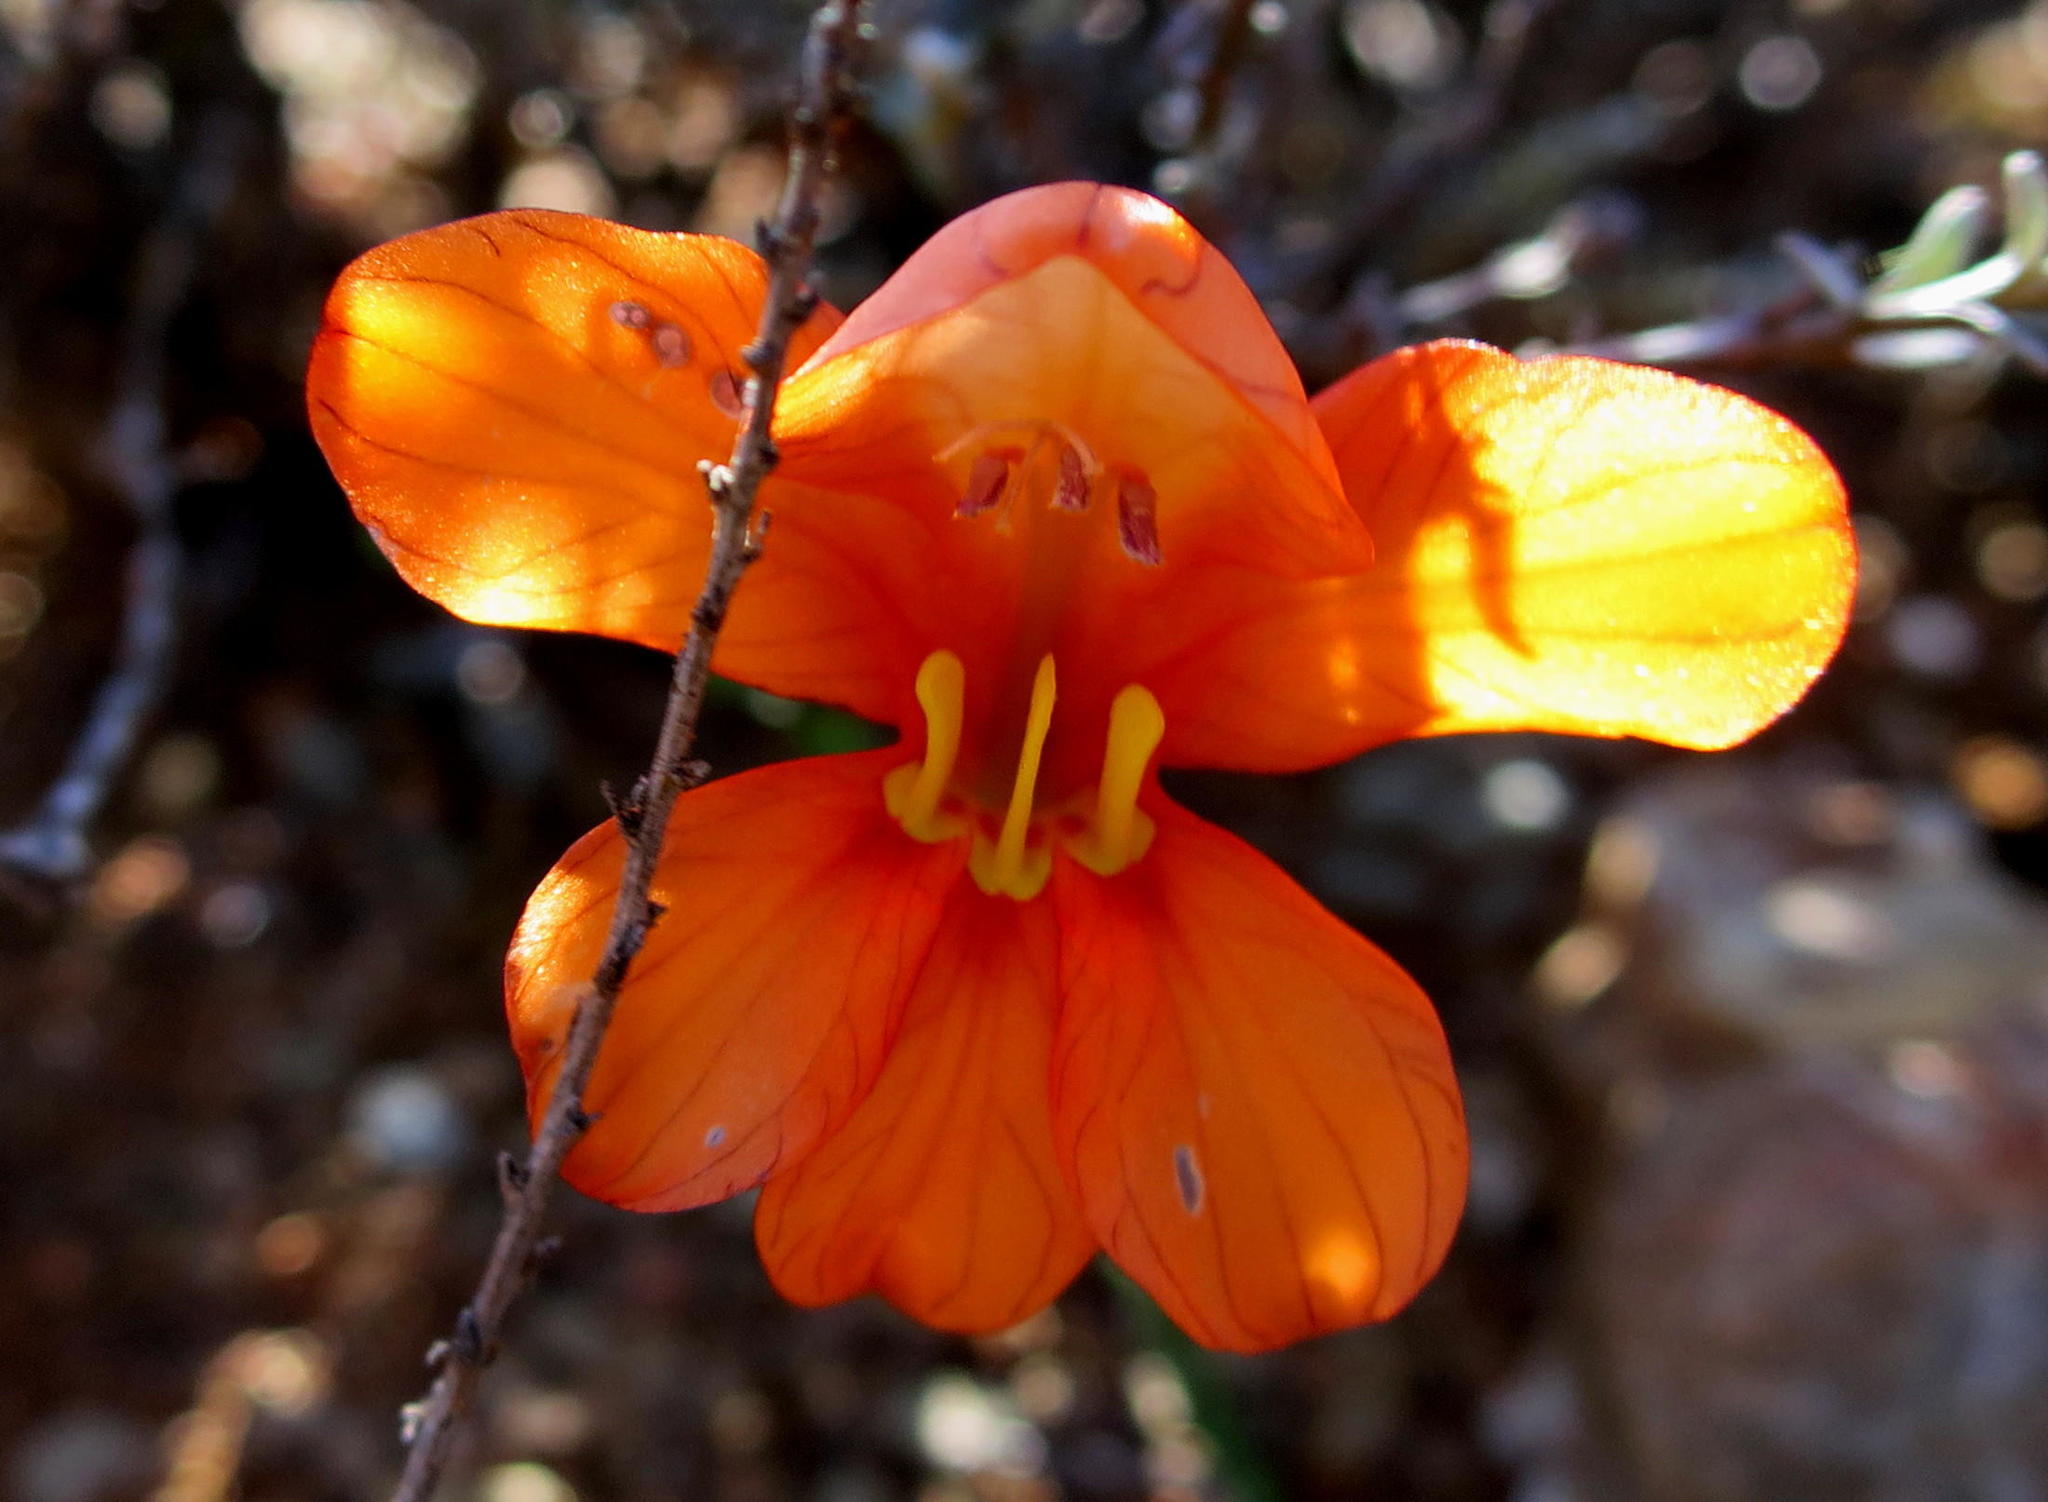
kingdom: Plantae
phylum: Tracheophyta
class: Liliopsida
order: Asparagales
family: Iridaceae
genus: Tritonia
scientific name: Tritonia watermeyeri
